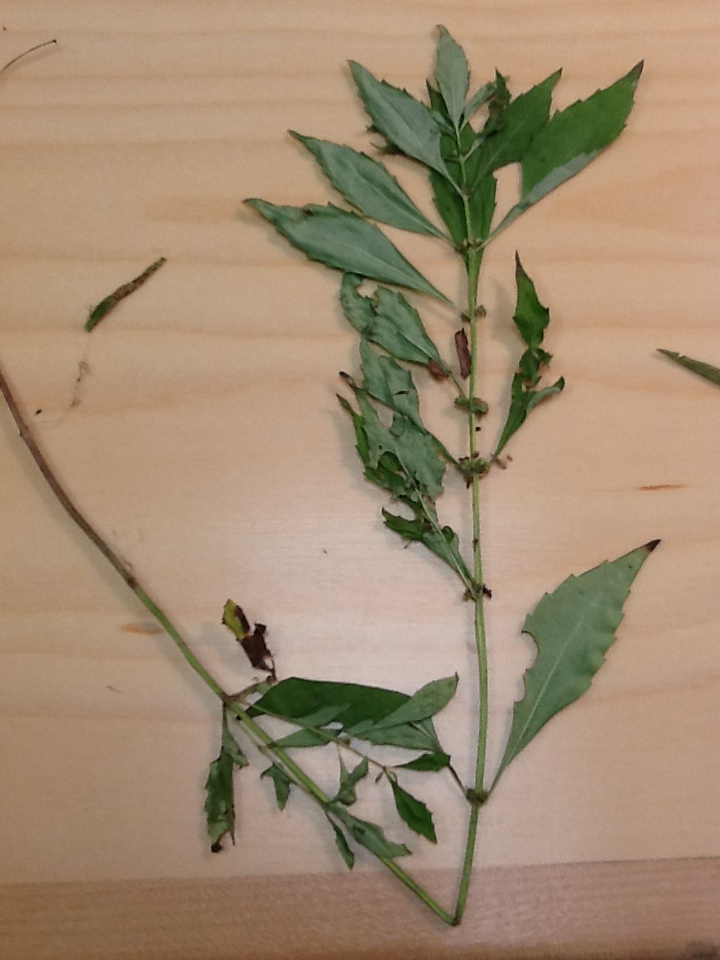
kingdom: Plantae
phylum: Tracheophyta
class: Magnoliopsida
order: Lamiales
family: Lamiaceae
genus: Lycopus
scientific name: Lycopus uniflorus
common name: Northern bugleweed
